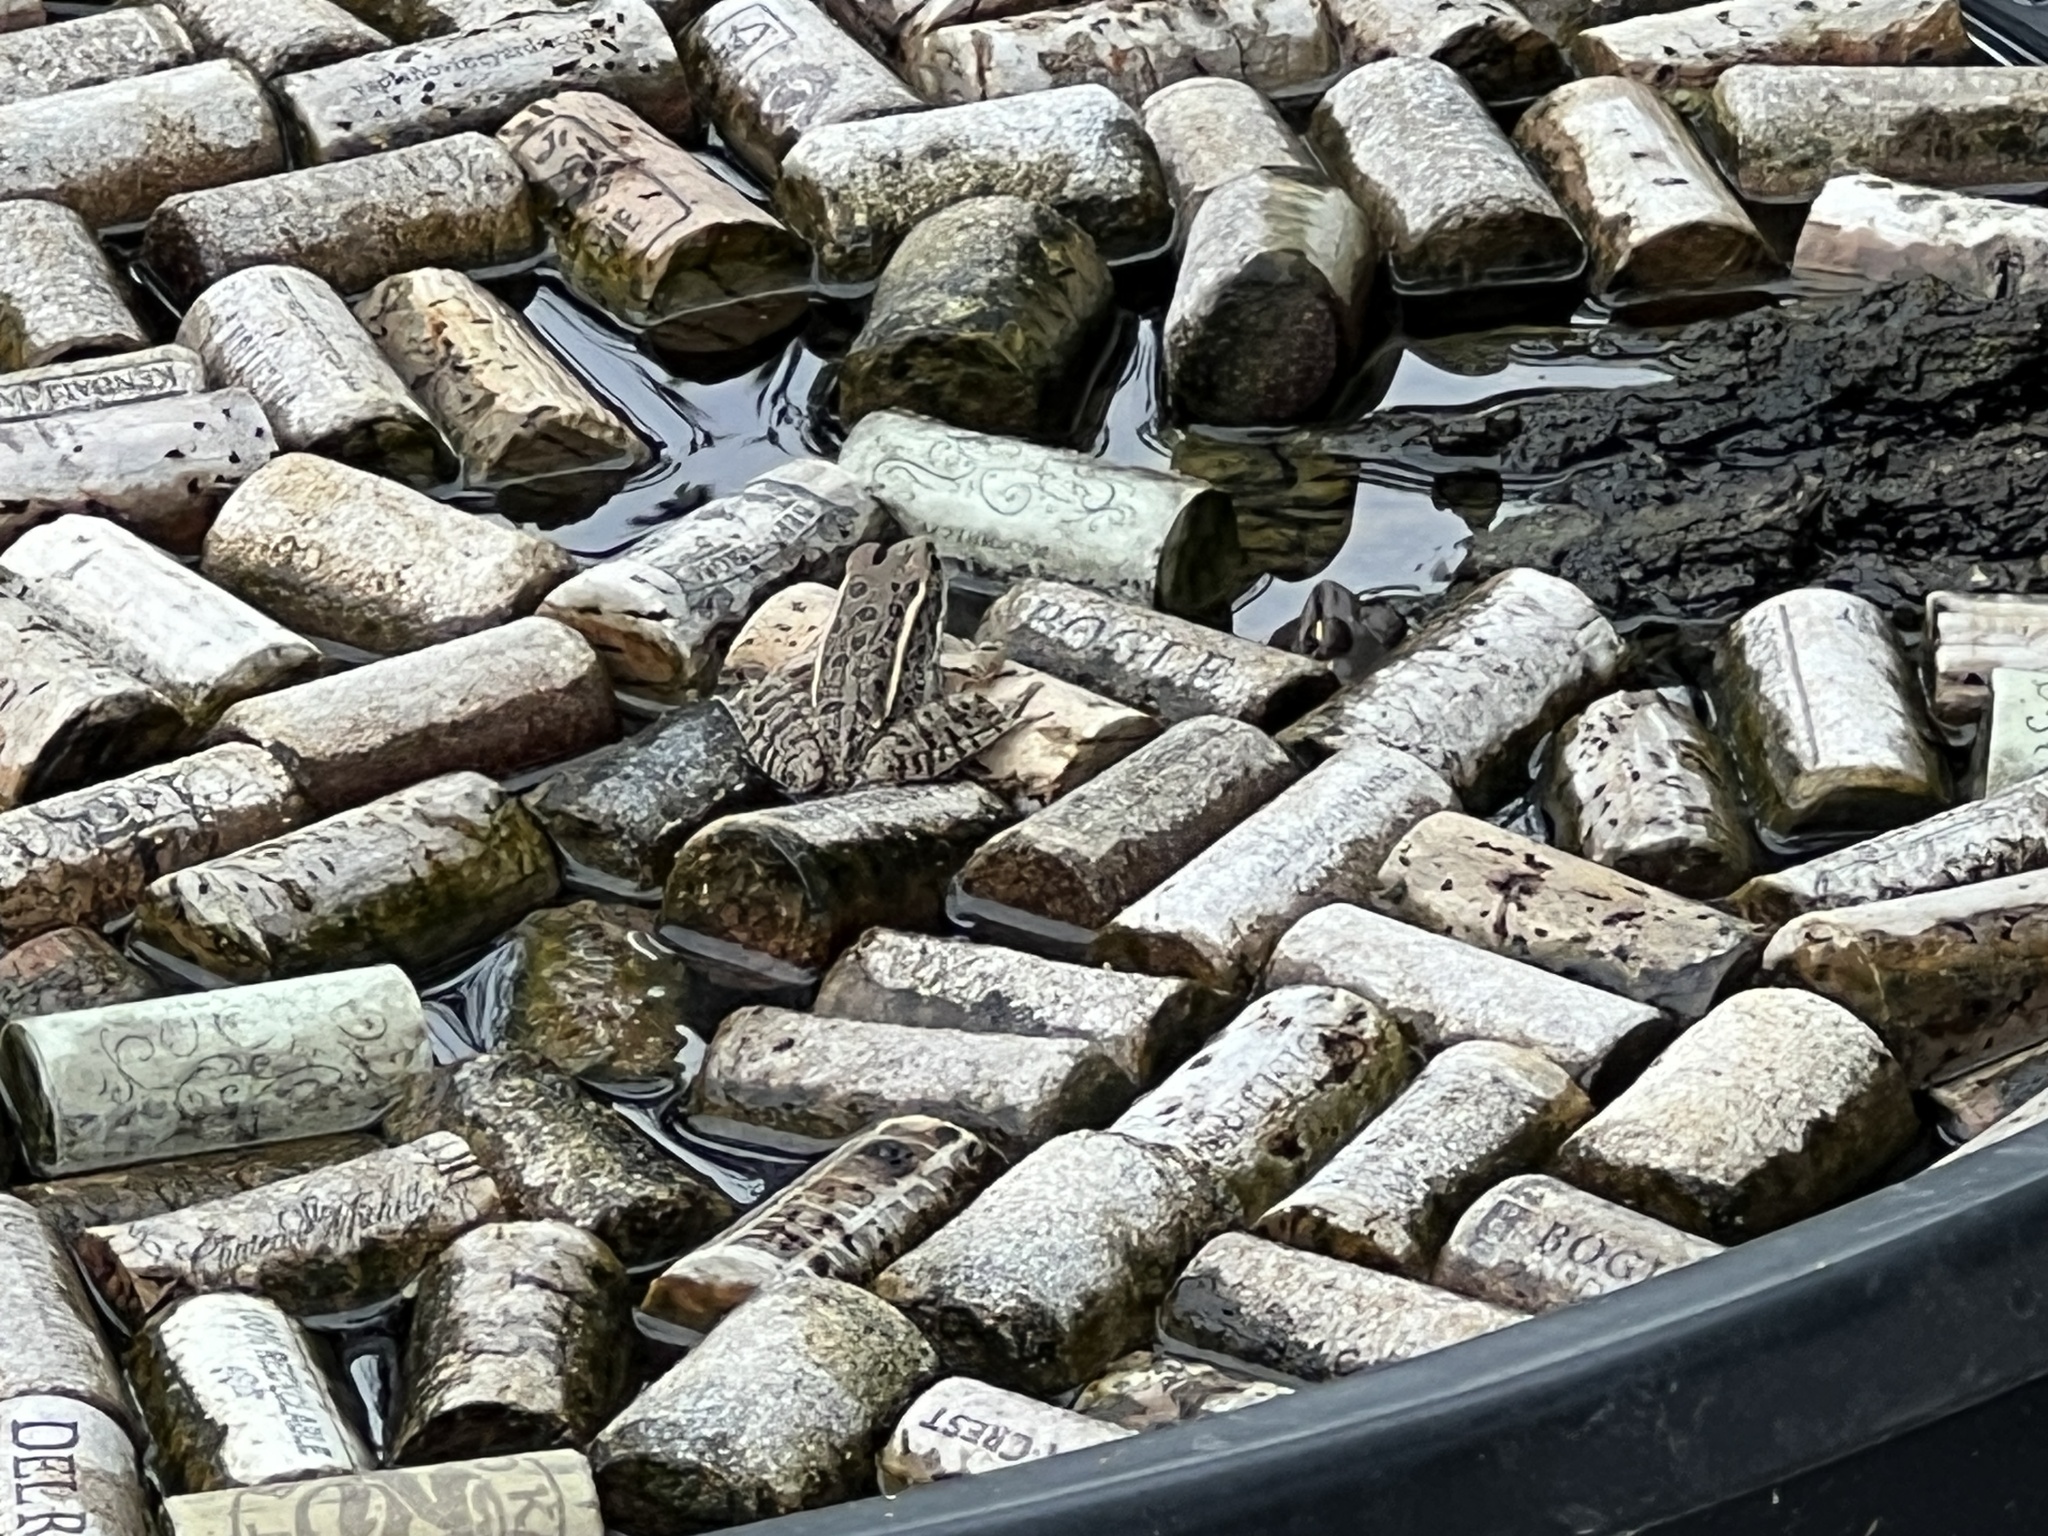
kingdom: Animalia
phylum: Chordata
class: Amphibia
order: Anura
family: Ranidae
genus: Lithobates
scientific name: Lithobates sphenocephalus
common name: Southern leopard frog
